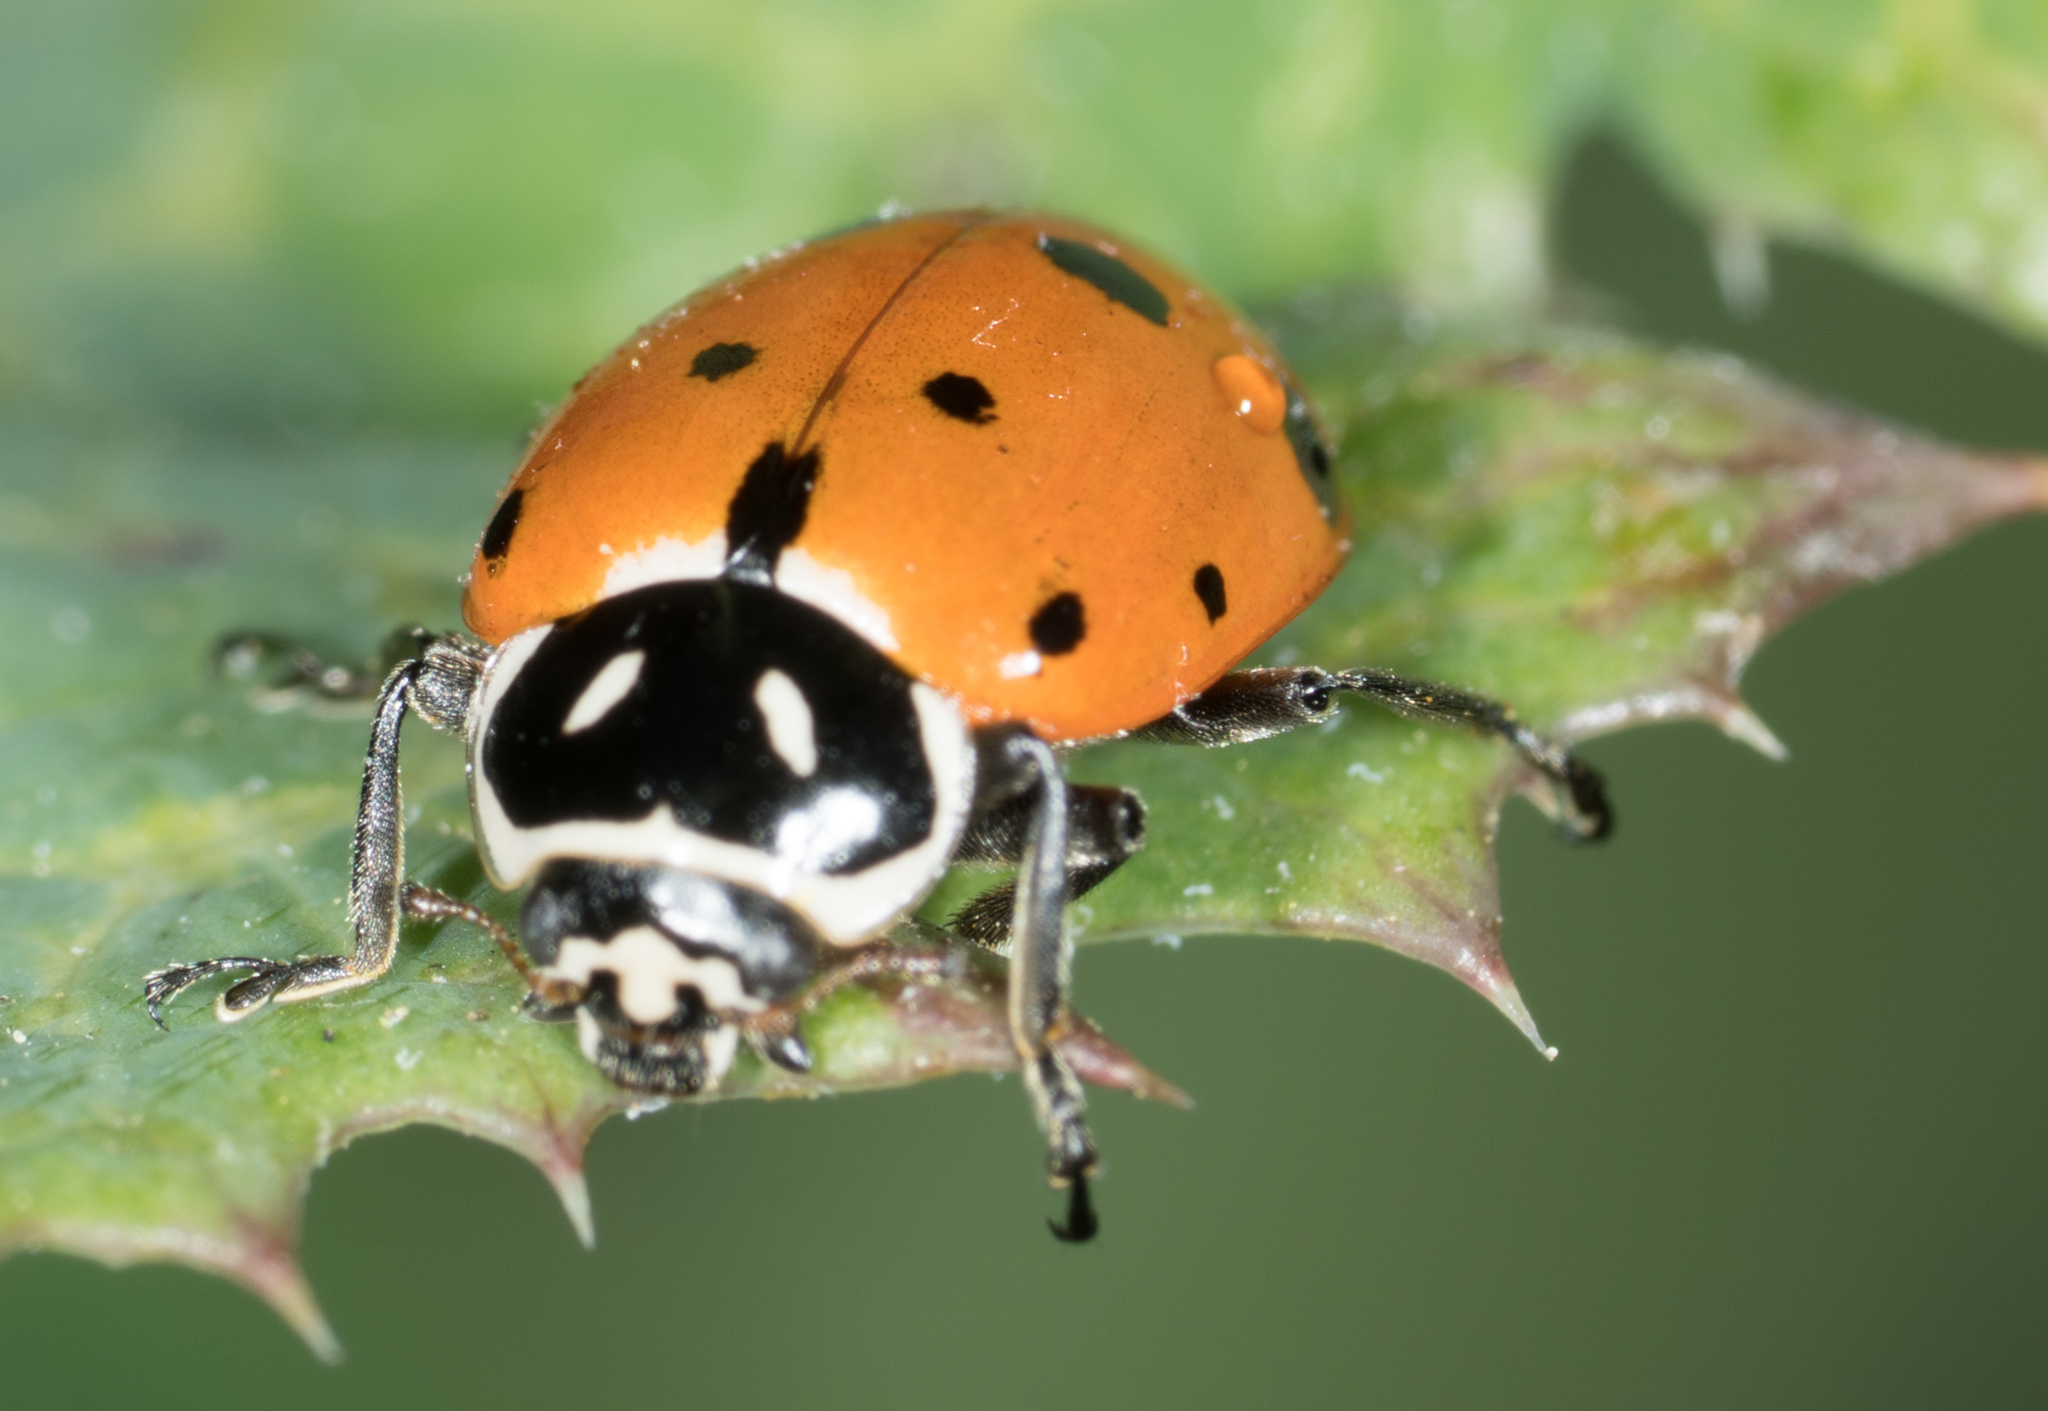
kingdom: Animalia
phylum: Arthropoda
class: Insecta
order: Coleoptera
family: Coccinellidae
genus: Hippodamia
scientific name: Hippodamia convergens
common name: Convergent lady beetle
